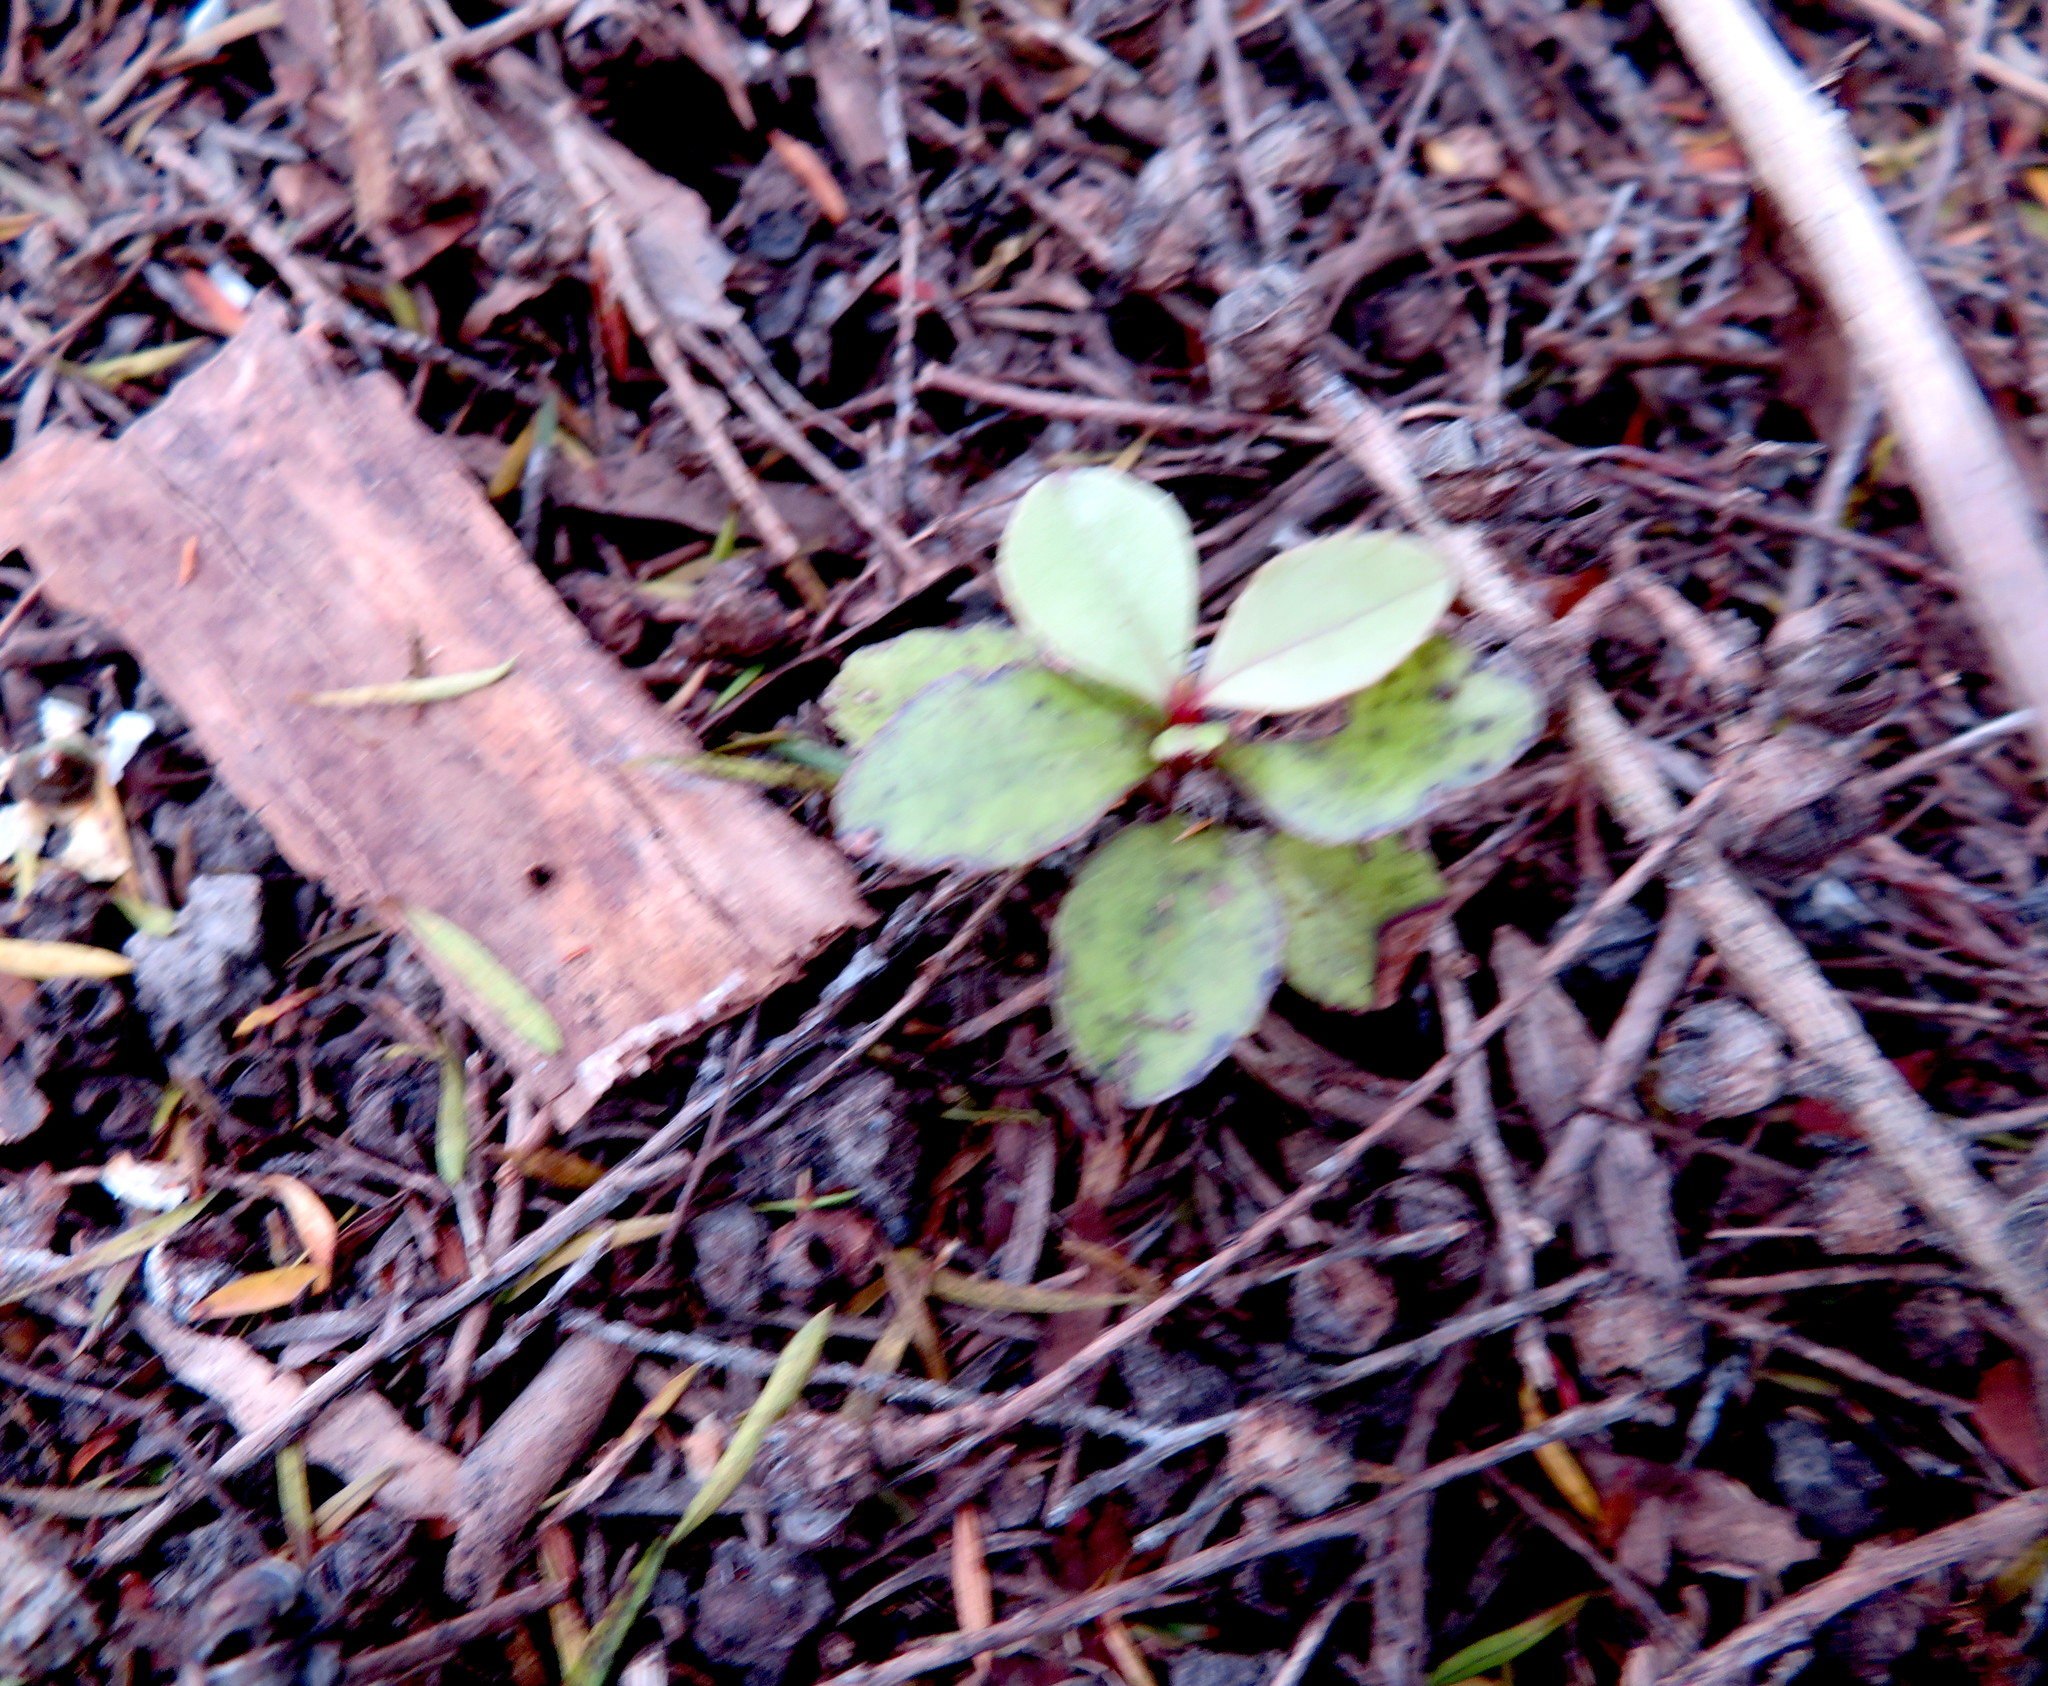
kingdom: Plantae
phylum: Tracheophyta
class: Magnoliopsida
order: Ericales
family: Primulaceae
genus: Myrsine
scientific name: Myrsine australis
